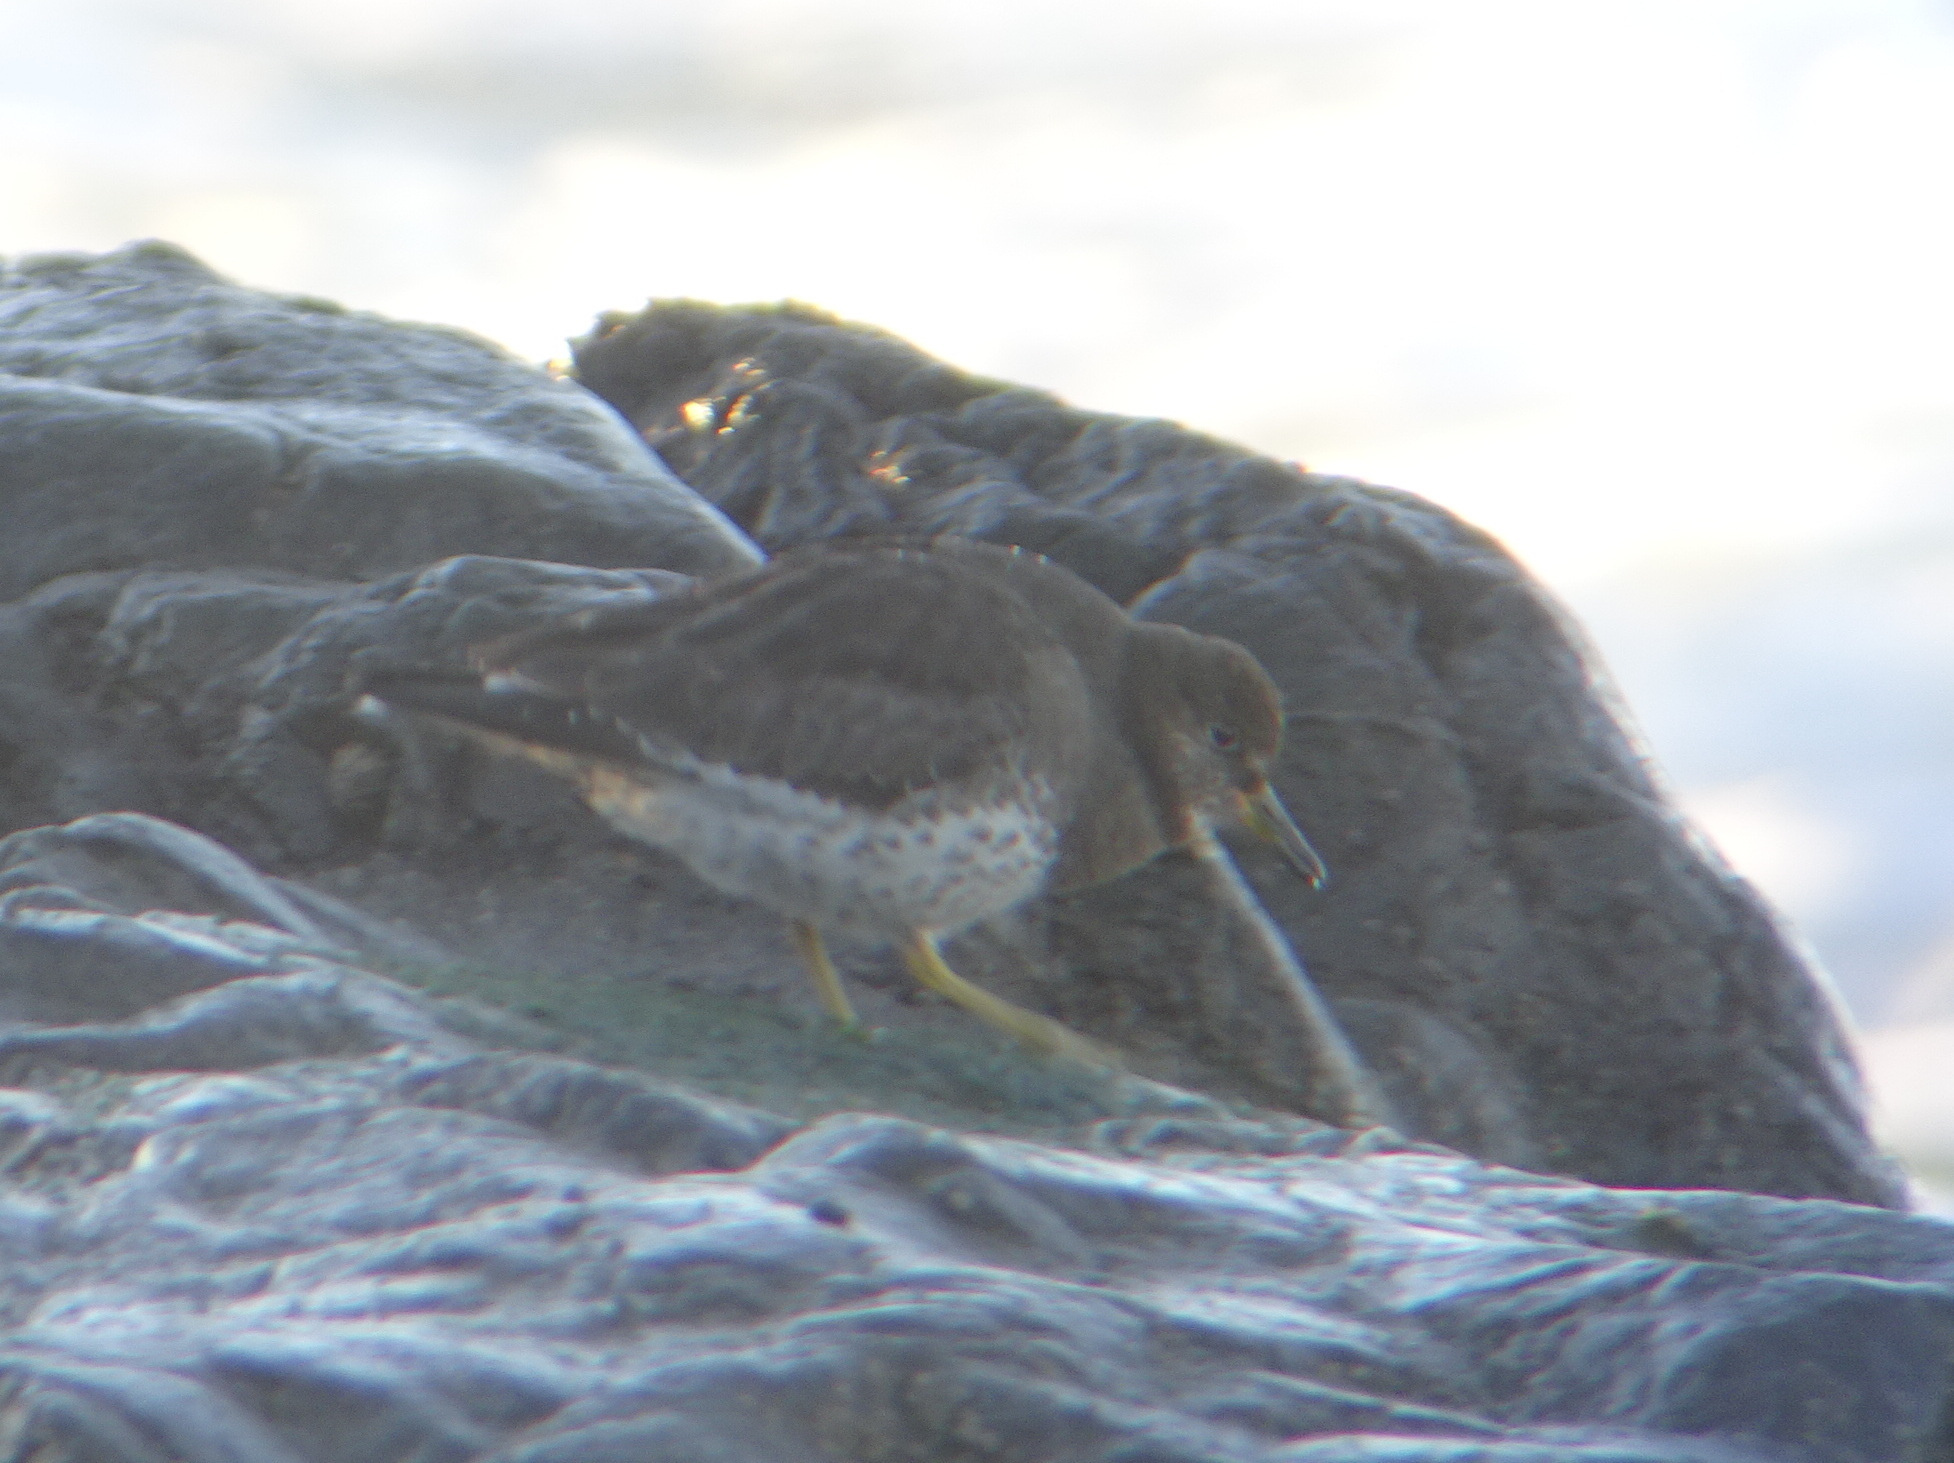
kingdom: Animalia
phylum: Chordata
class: Aves
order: Charadriiformes
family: Scolopacidae
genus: Calidris
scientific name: Calidris virgata
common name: Surfbird
